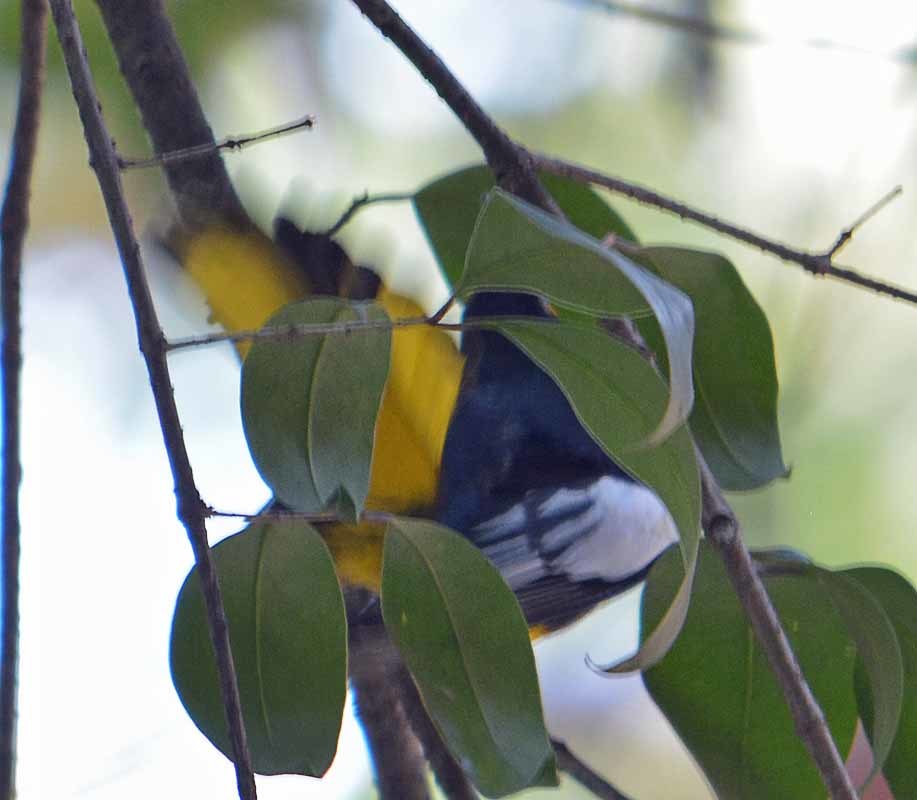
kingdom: Animalia
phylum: Chordata
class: Aves
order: Passeriformes
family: Icteridae
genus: Icterus
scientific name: Icterus abeillei
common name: Black-backed oriole
